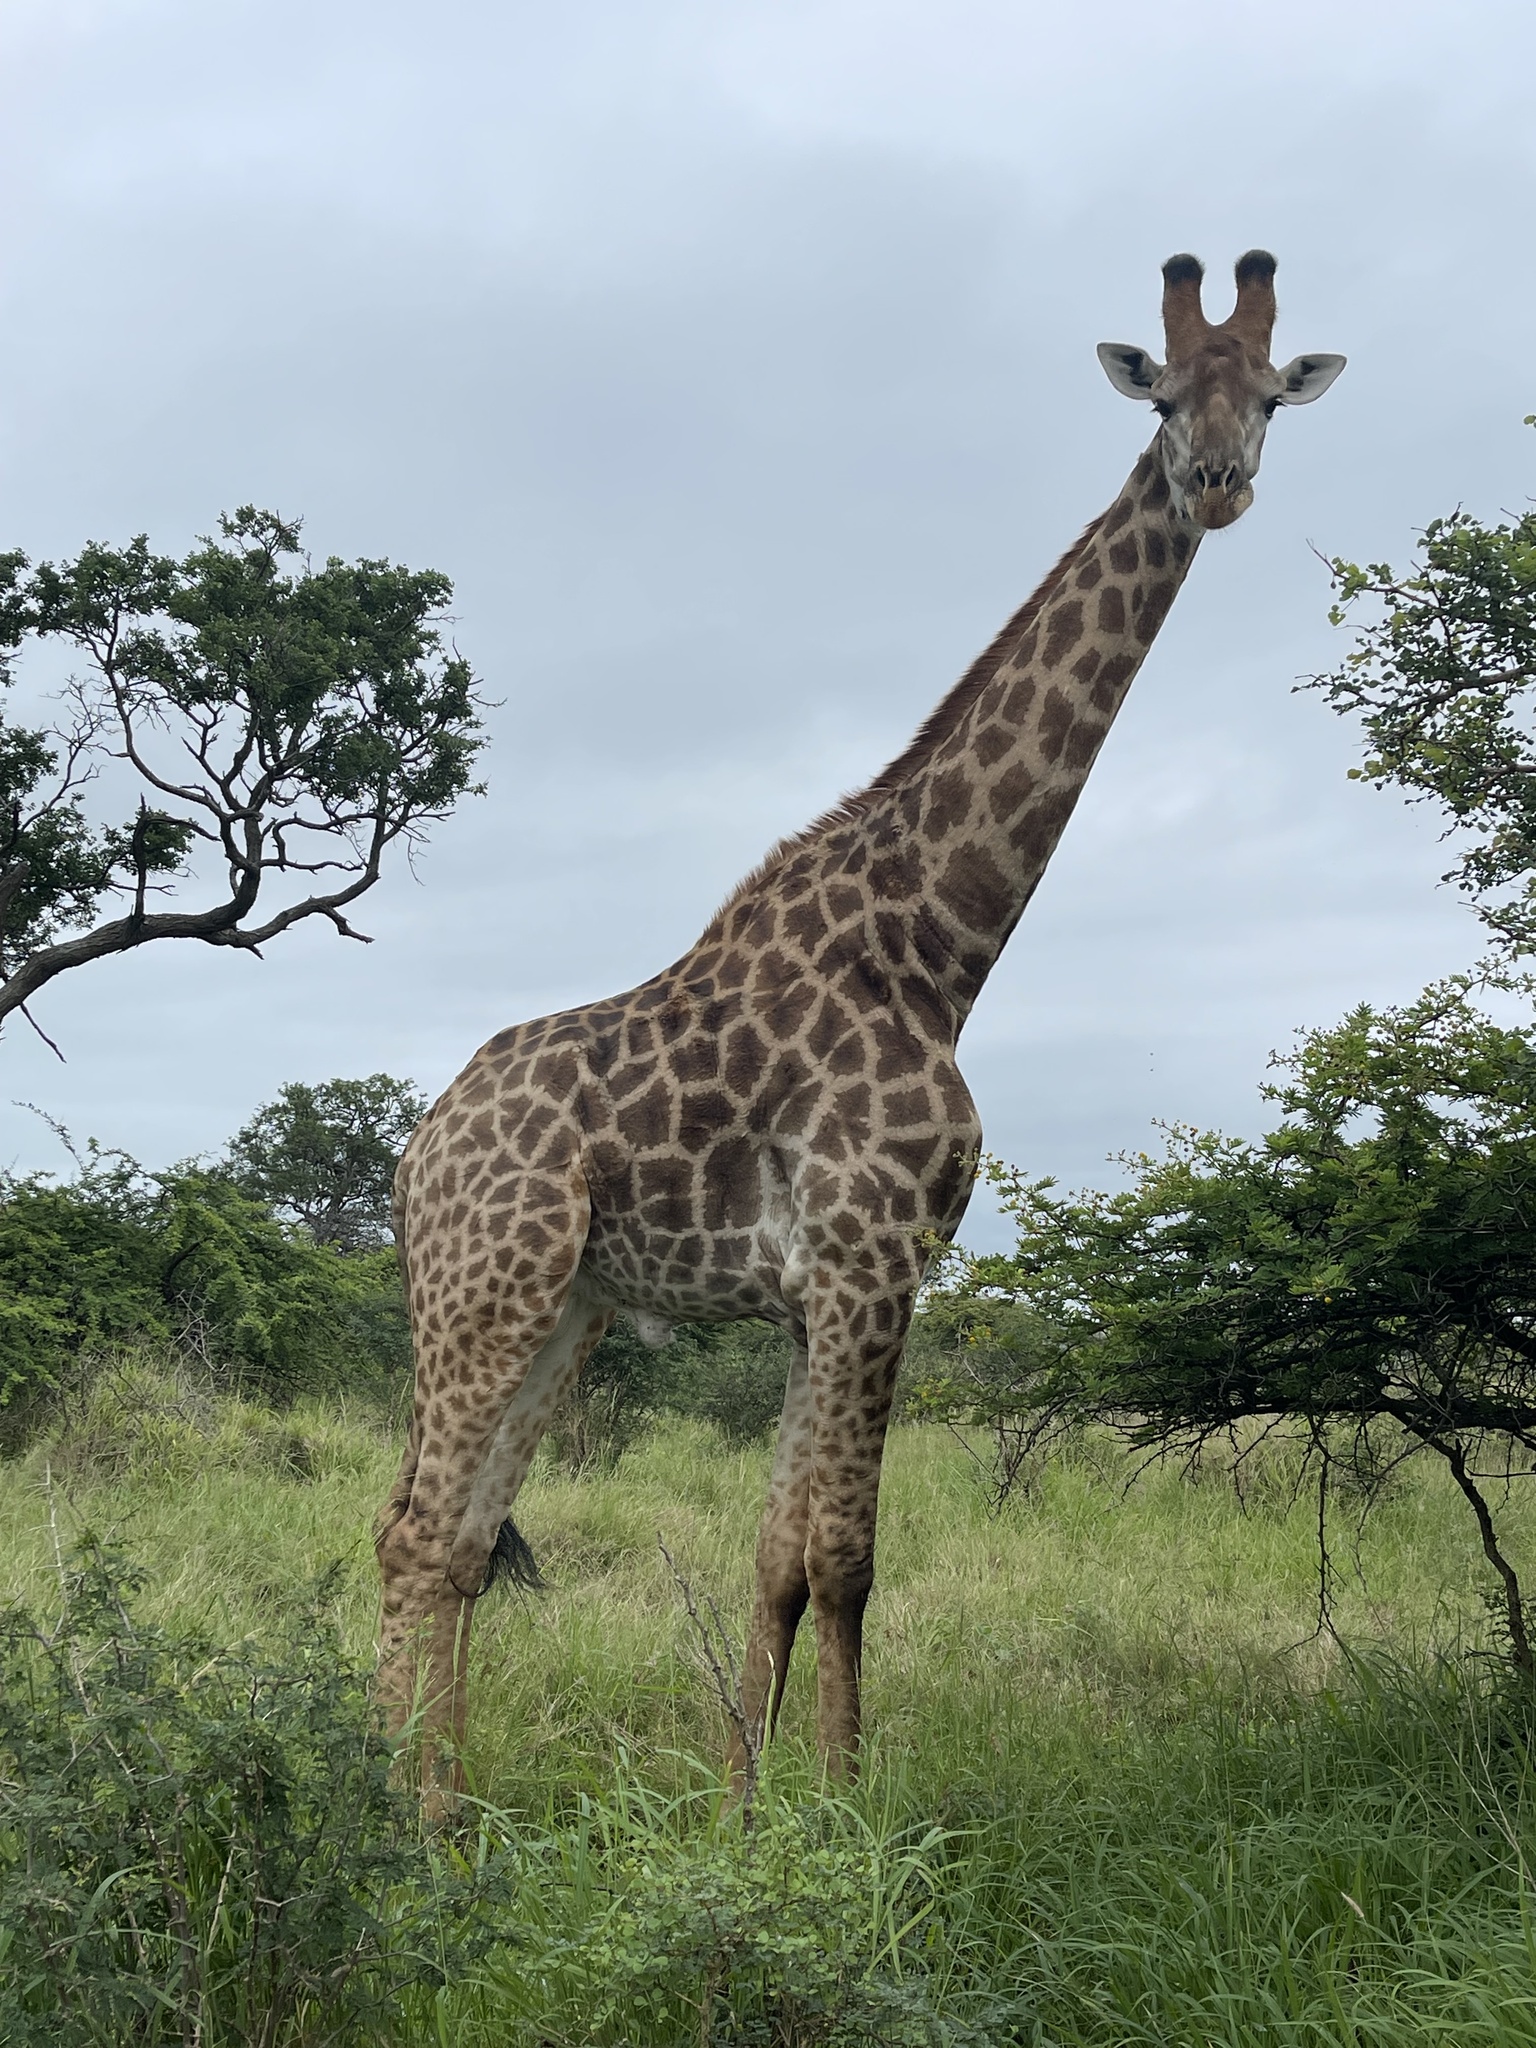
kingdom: Animalia
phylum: Chordata
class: Mammalia
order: Artiodactyla
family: Giraffidae
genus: Giraffa
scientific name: Giraffa giraffa
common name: Southern giraffe
